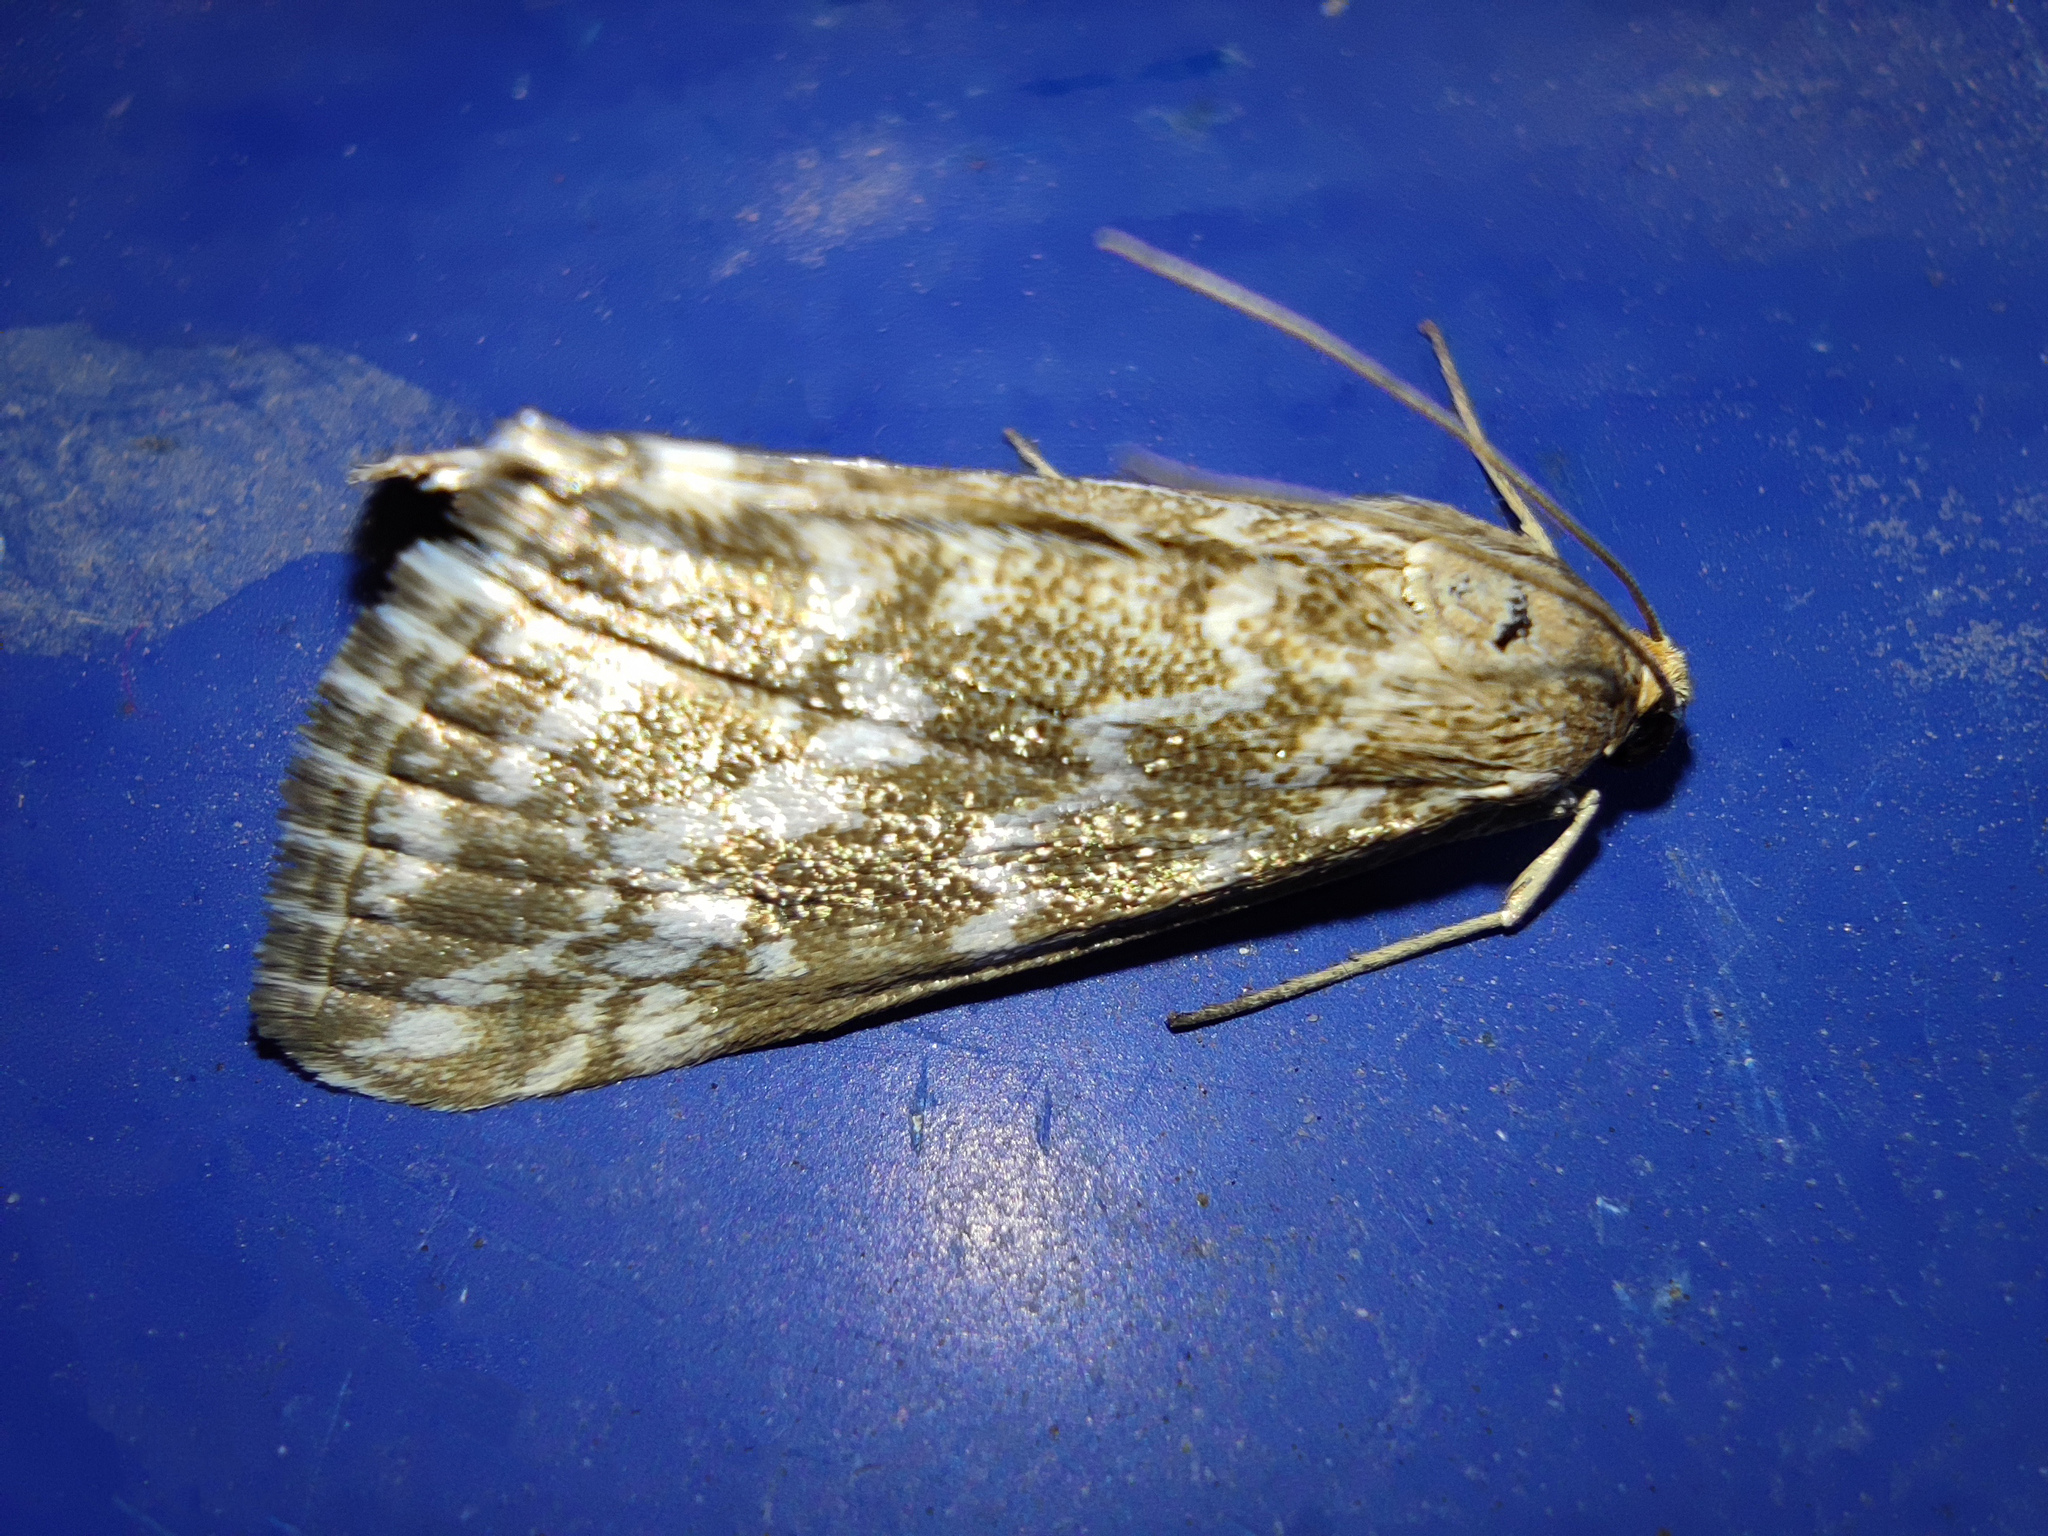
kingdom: Animalia
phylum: Arthropoda
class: Insecta
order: Lepidoptera
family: Crambidae
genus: Evergestis
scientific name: Evergestis frumentalis
